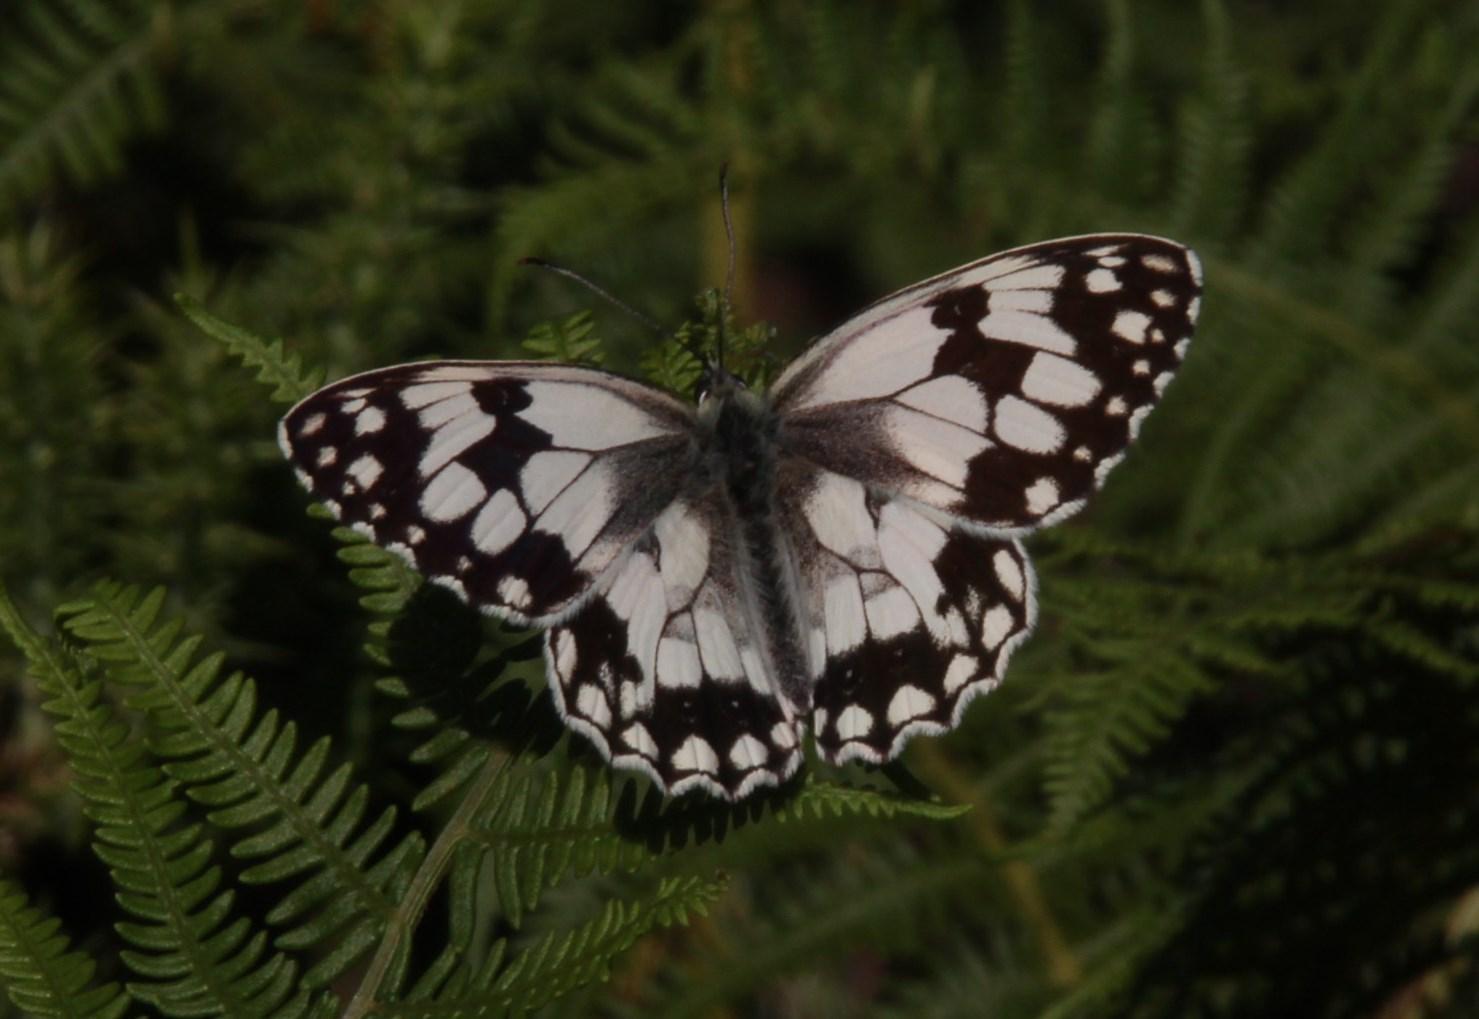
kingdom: Animalia
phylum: Arthropoda
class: Insecta
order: Lepidoptera
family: Nymphalidae
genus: Melanargia
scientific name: Melanargia lachesis
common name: Iberian marbled white
